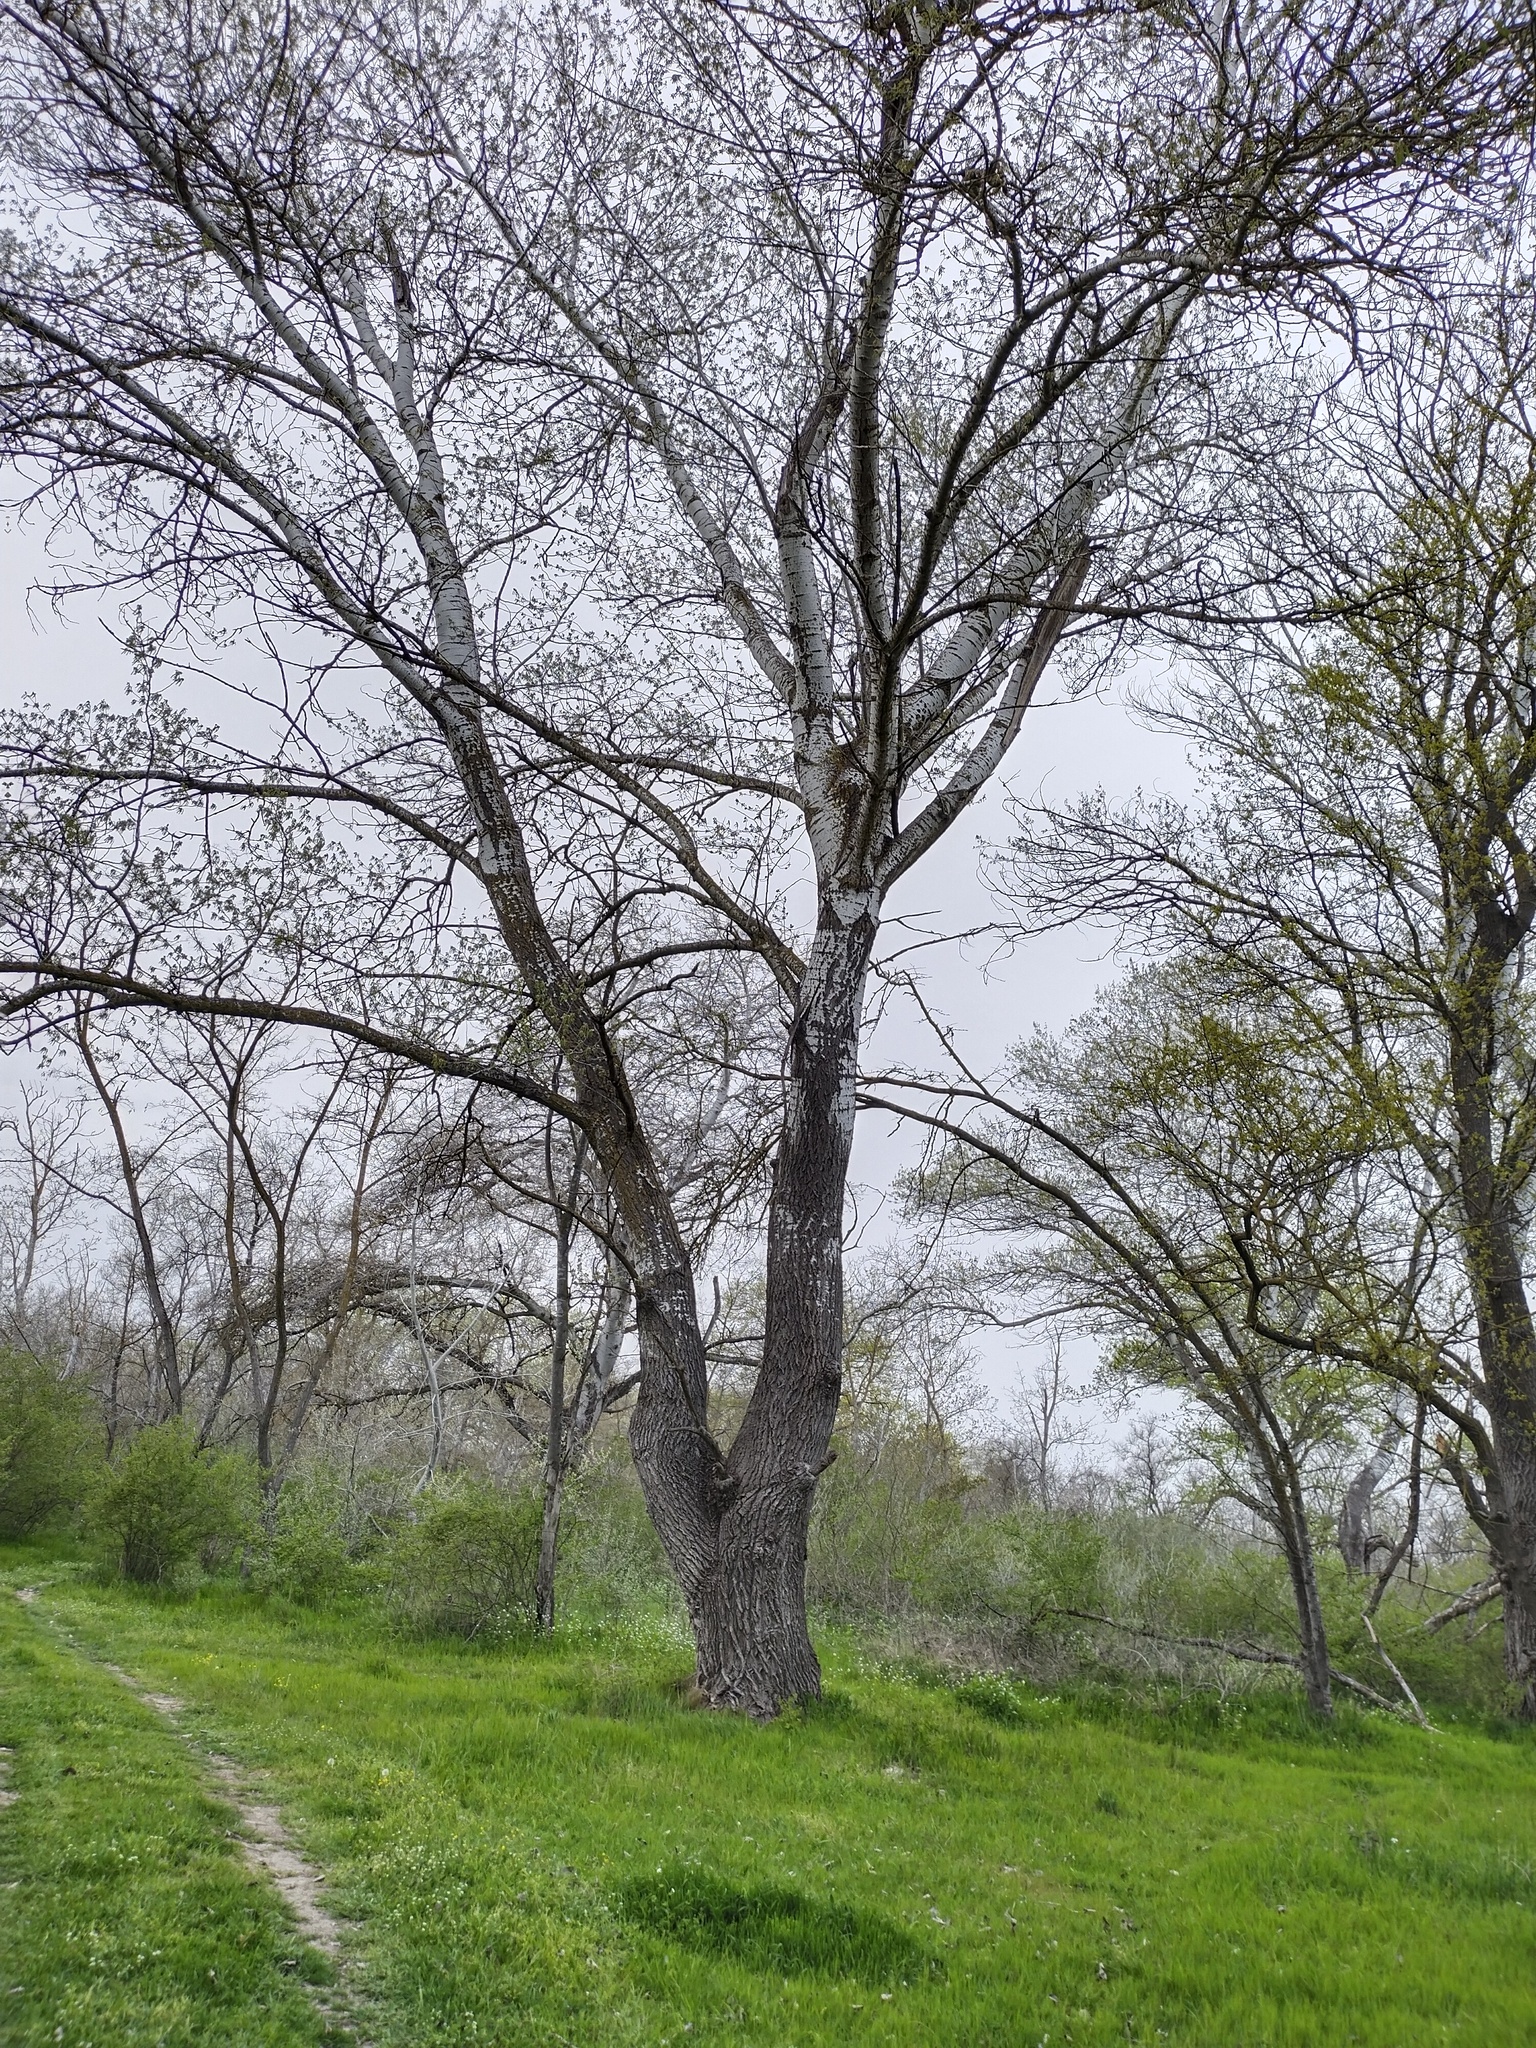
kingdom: Plantae
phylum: Tracheophyta
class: Magnoliopsida
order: Malpighiales
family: Salicaceae
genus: Populus
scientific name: Populus alba
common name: White poplar
